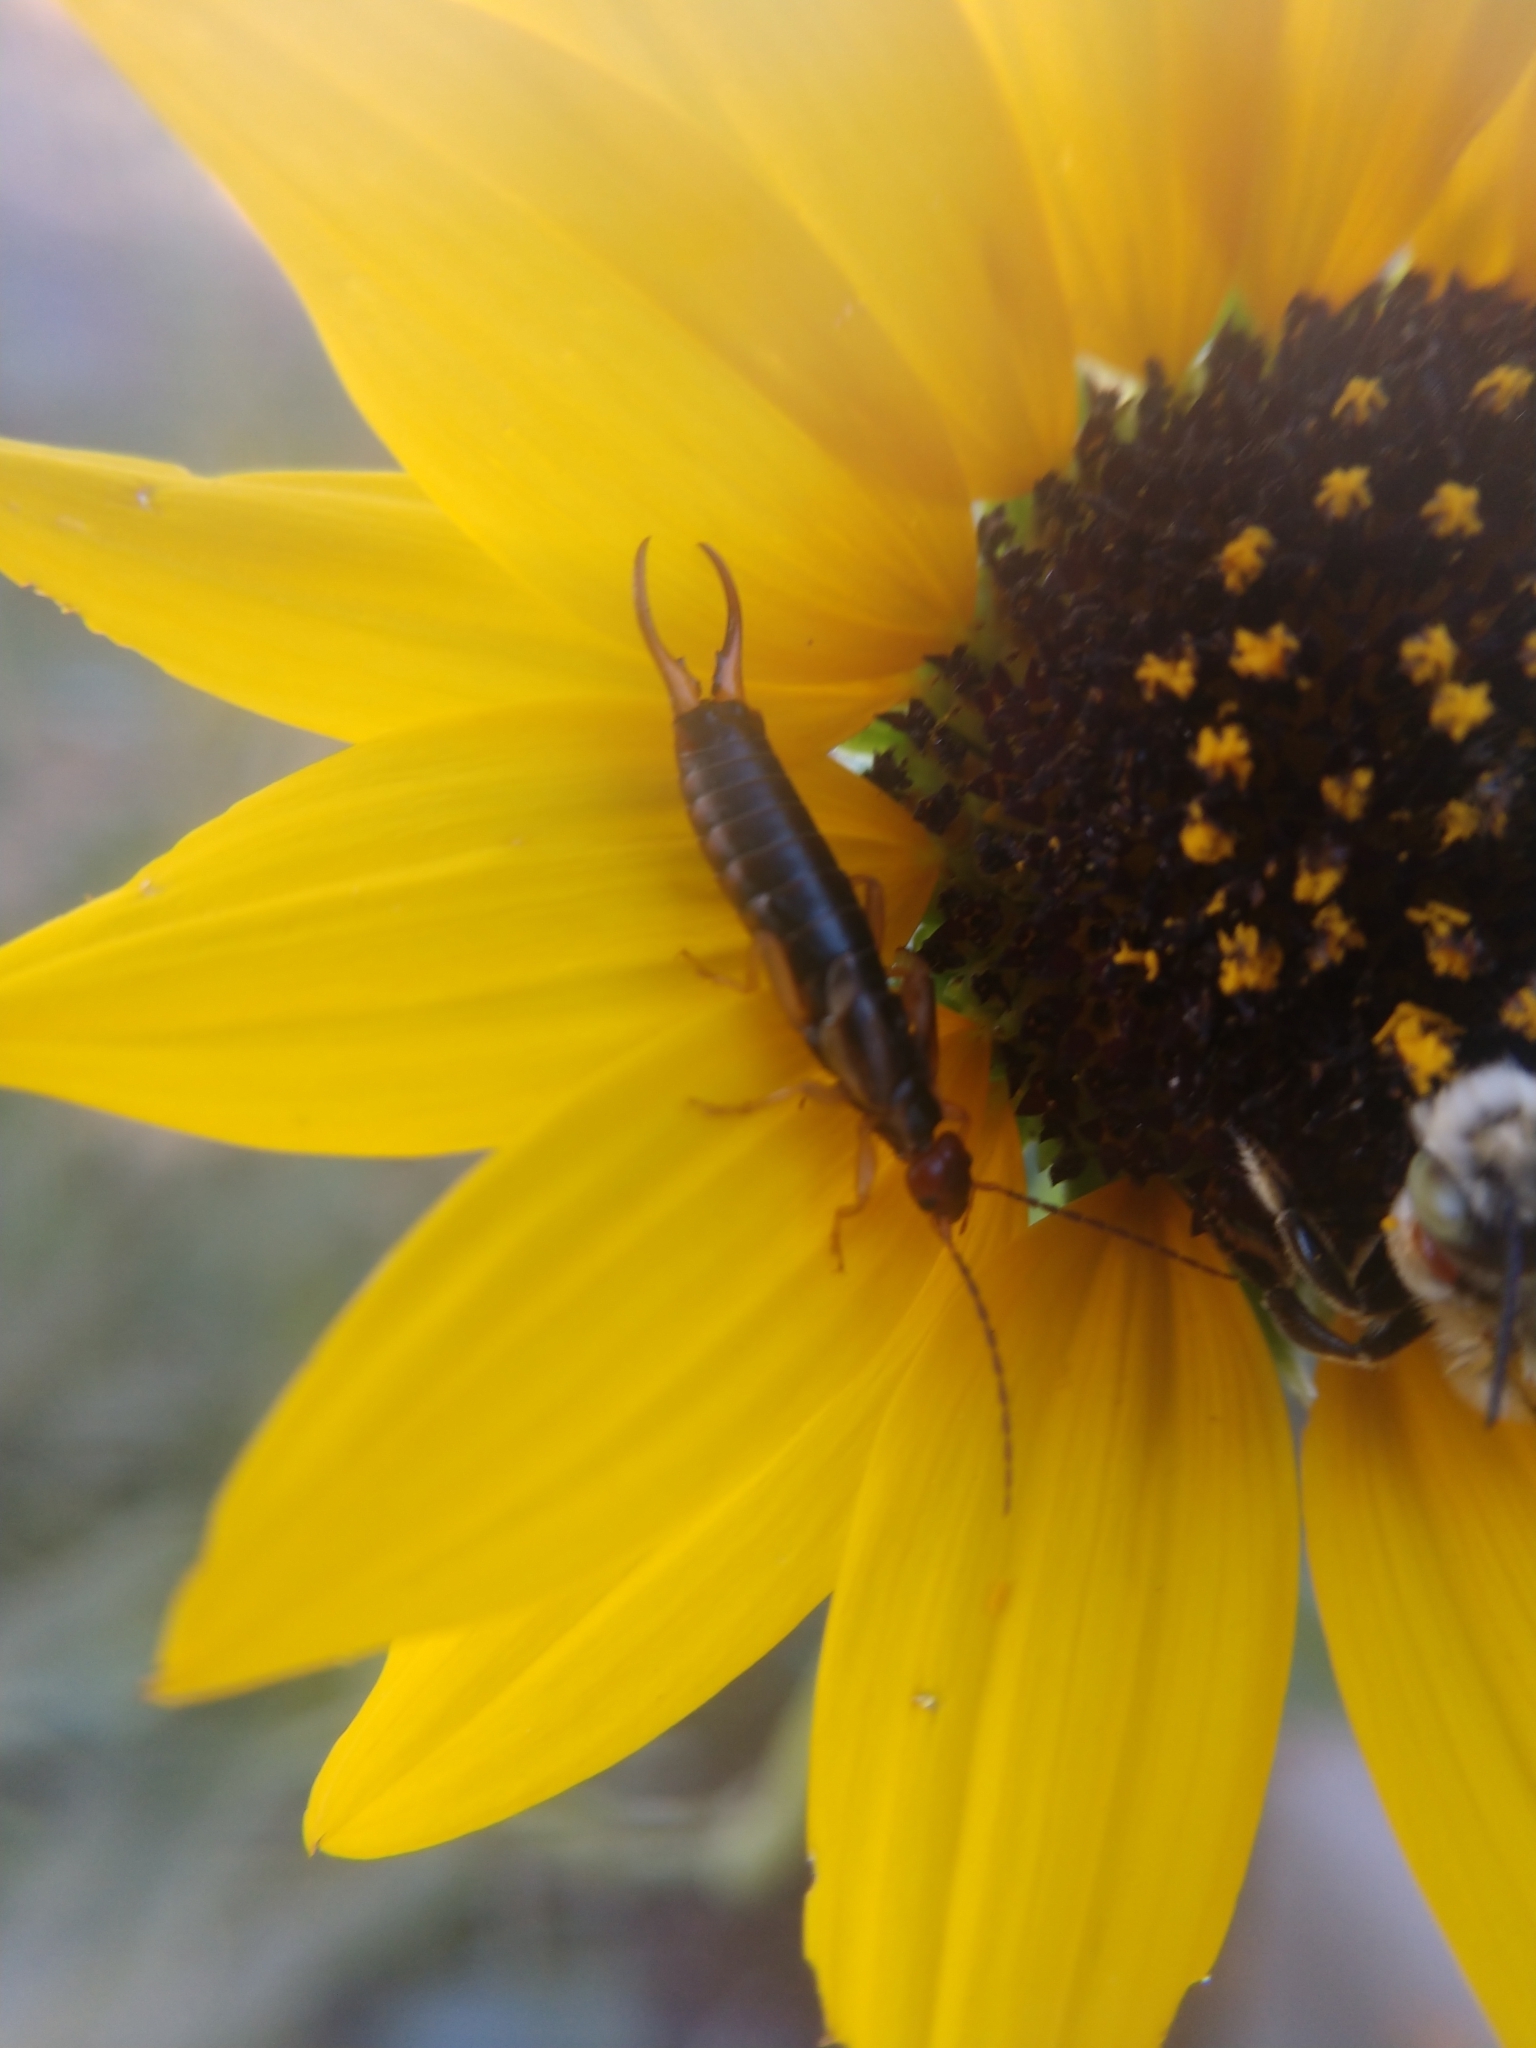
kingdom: Animalia
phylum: Arthropoda
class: Insecta
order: Dermaptera
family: Forficulidae
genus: Forficula
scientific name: Forficula
